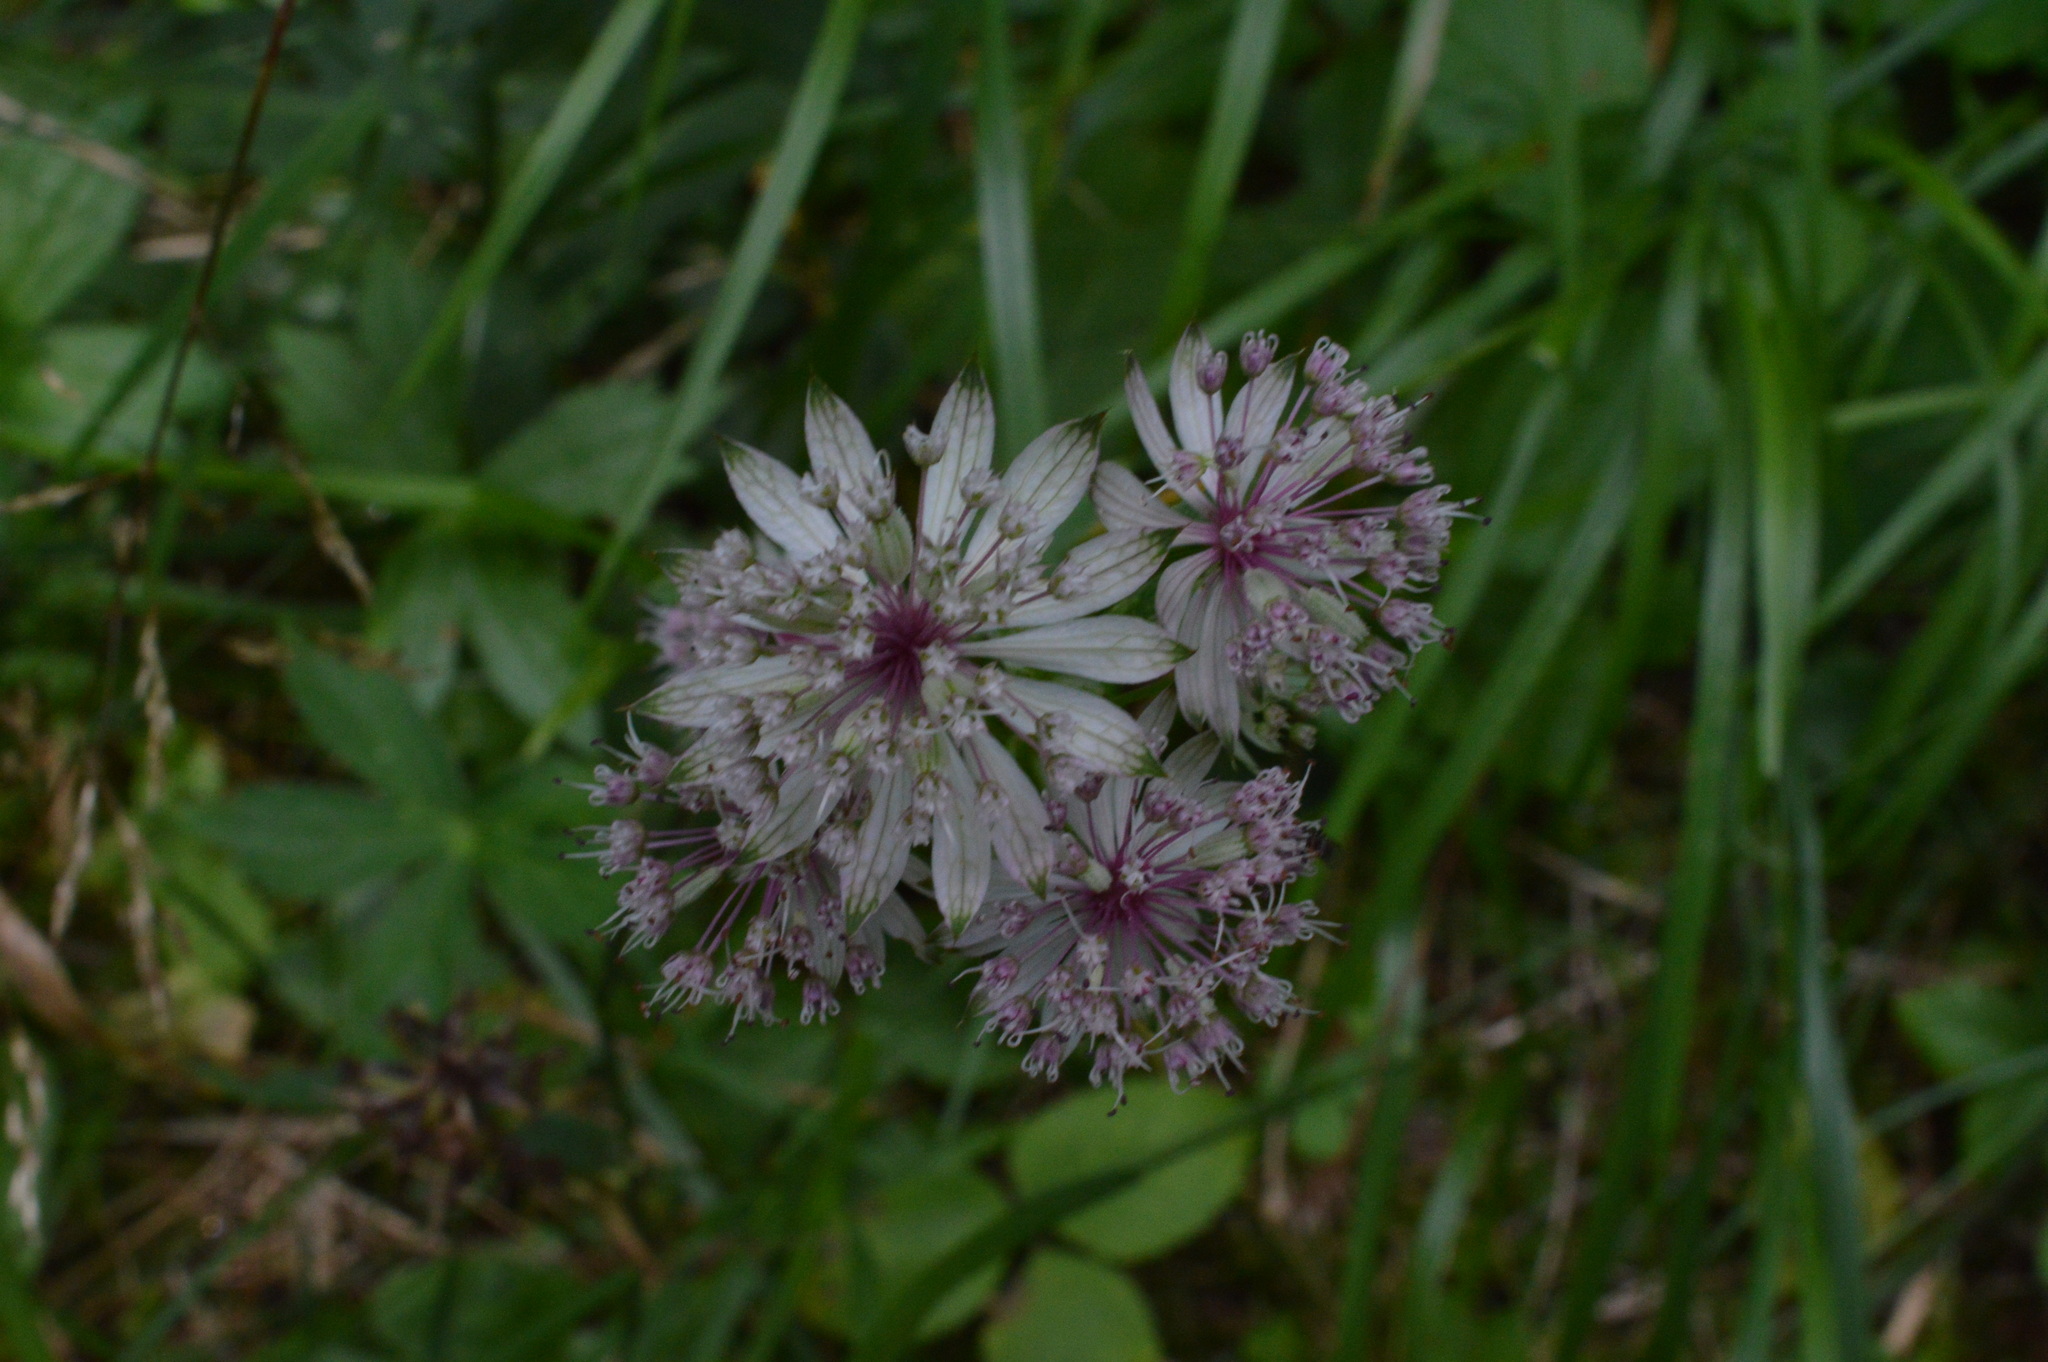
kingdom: Plantae
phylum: Tracheophyta
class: Magnoliopsida
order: Apiales
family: Apiaceae
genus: Astrantia
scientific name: Astrantia major
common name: Greater masterwort
